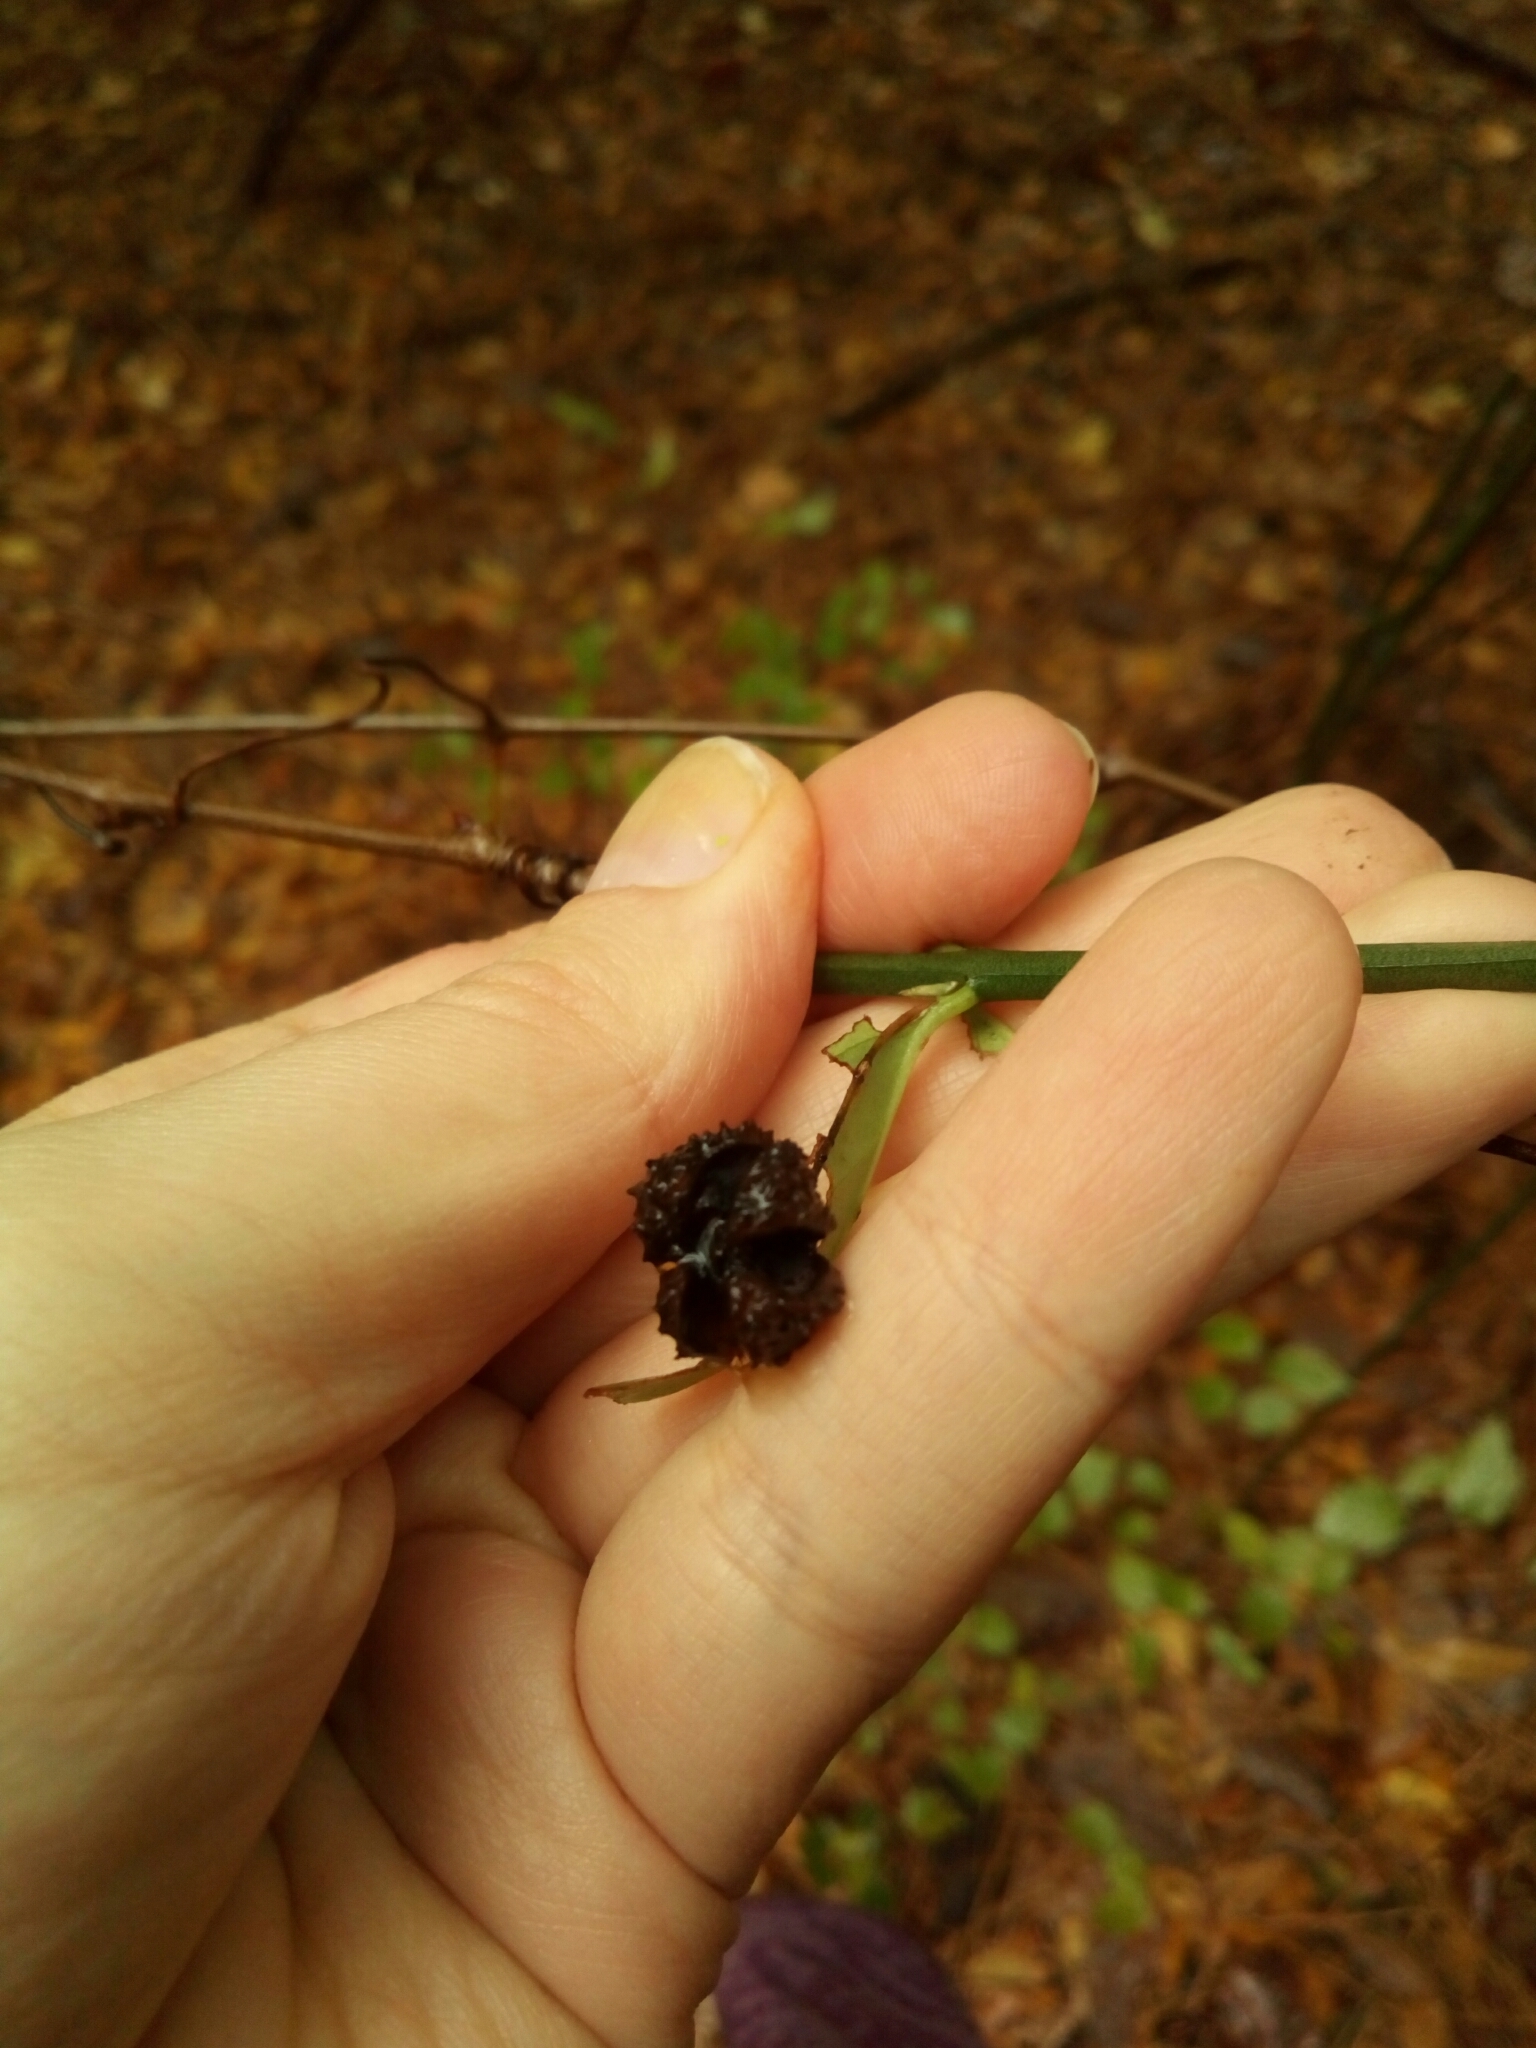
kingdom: Plantae
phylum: Tracheophyta
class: Magnoliopsida
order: Celastrales
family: Celastraceae
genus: Euonymus
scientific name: Euonymus americanus
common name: Bursting-heart
